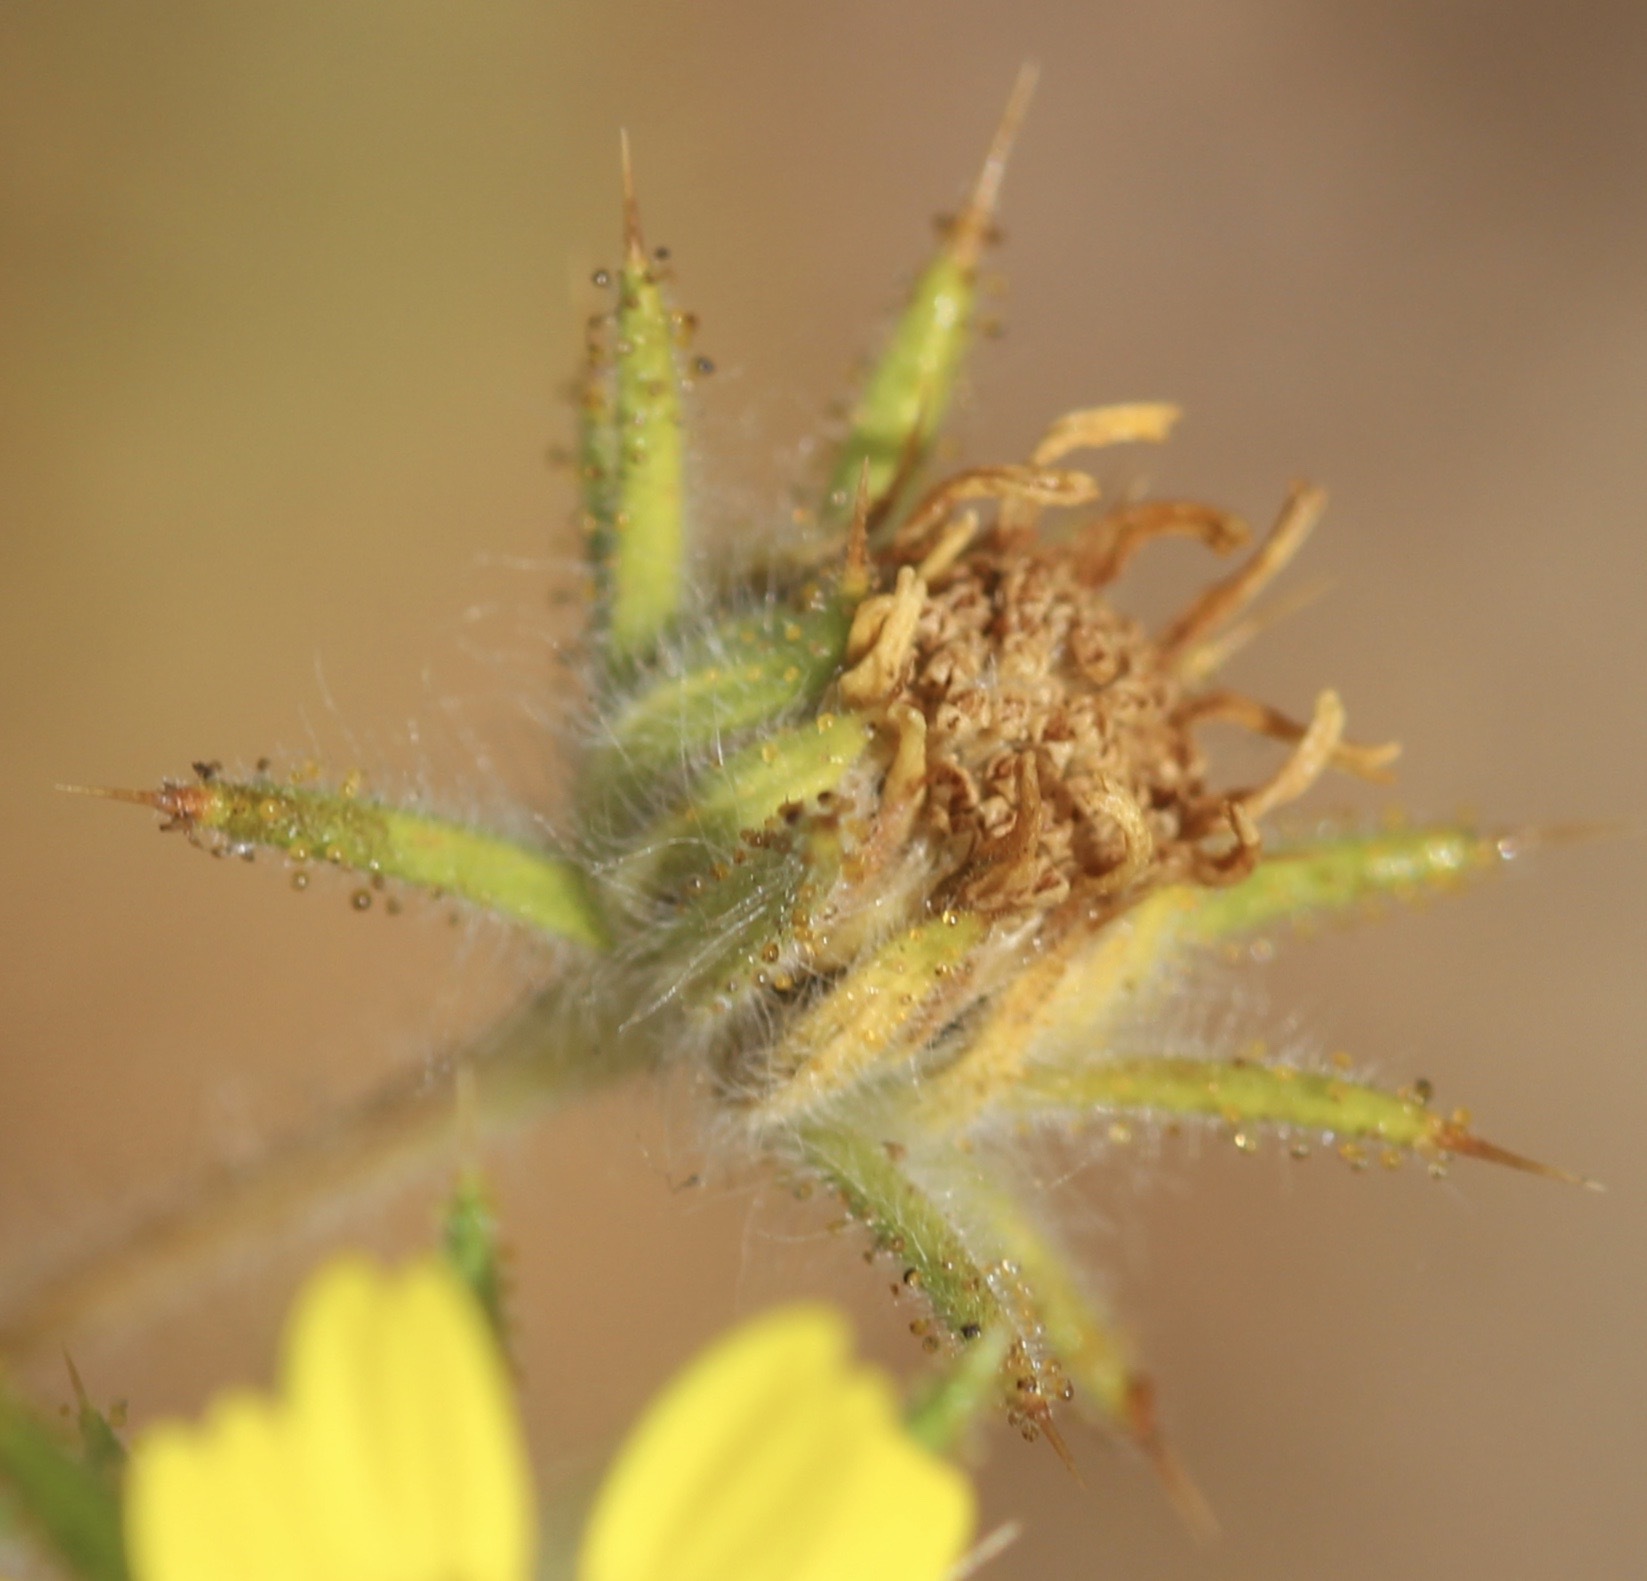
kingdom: Plantae
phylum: Tracheophyta
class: Magnoliopsida
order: Asterales
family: Asteraceae
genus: Centromadia
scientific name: Centromadia fitchii
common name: Fitch's spikeweed
